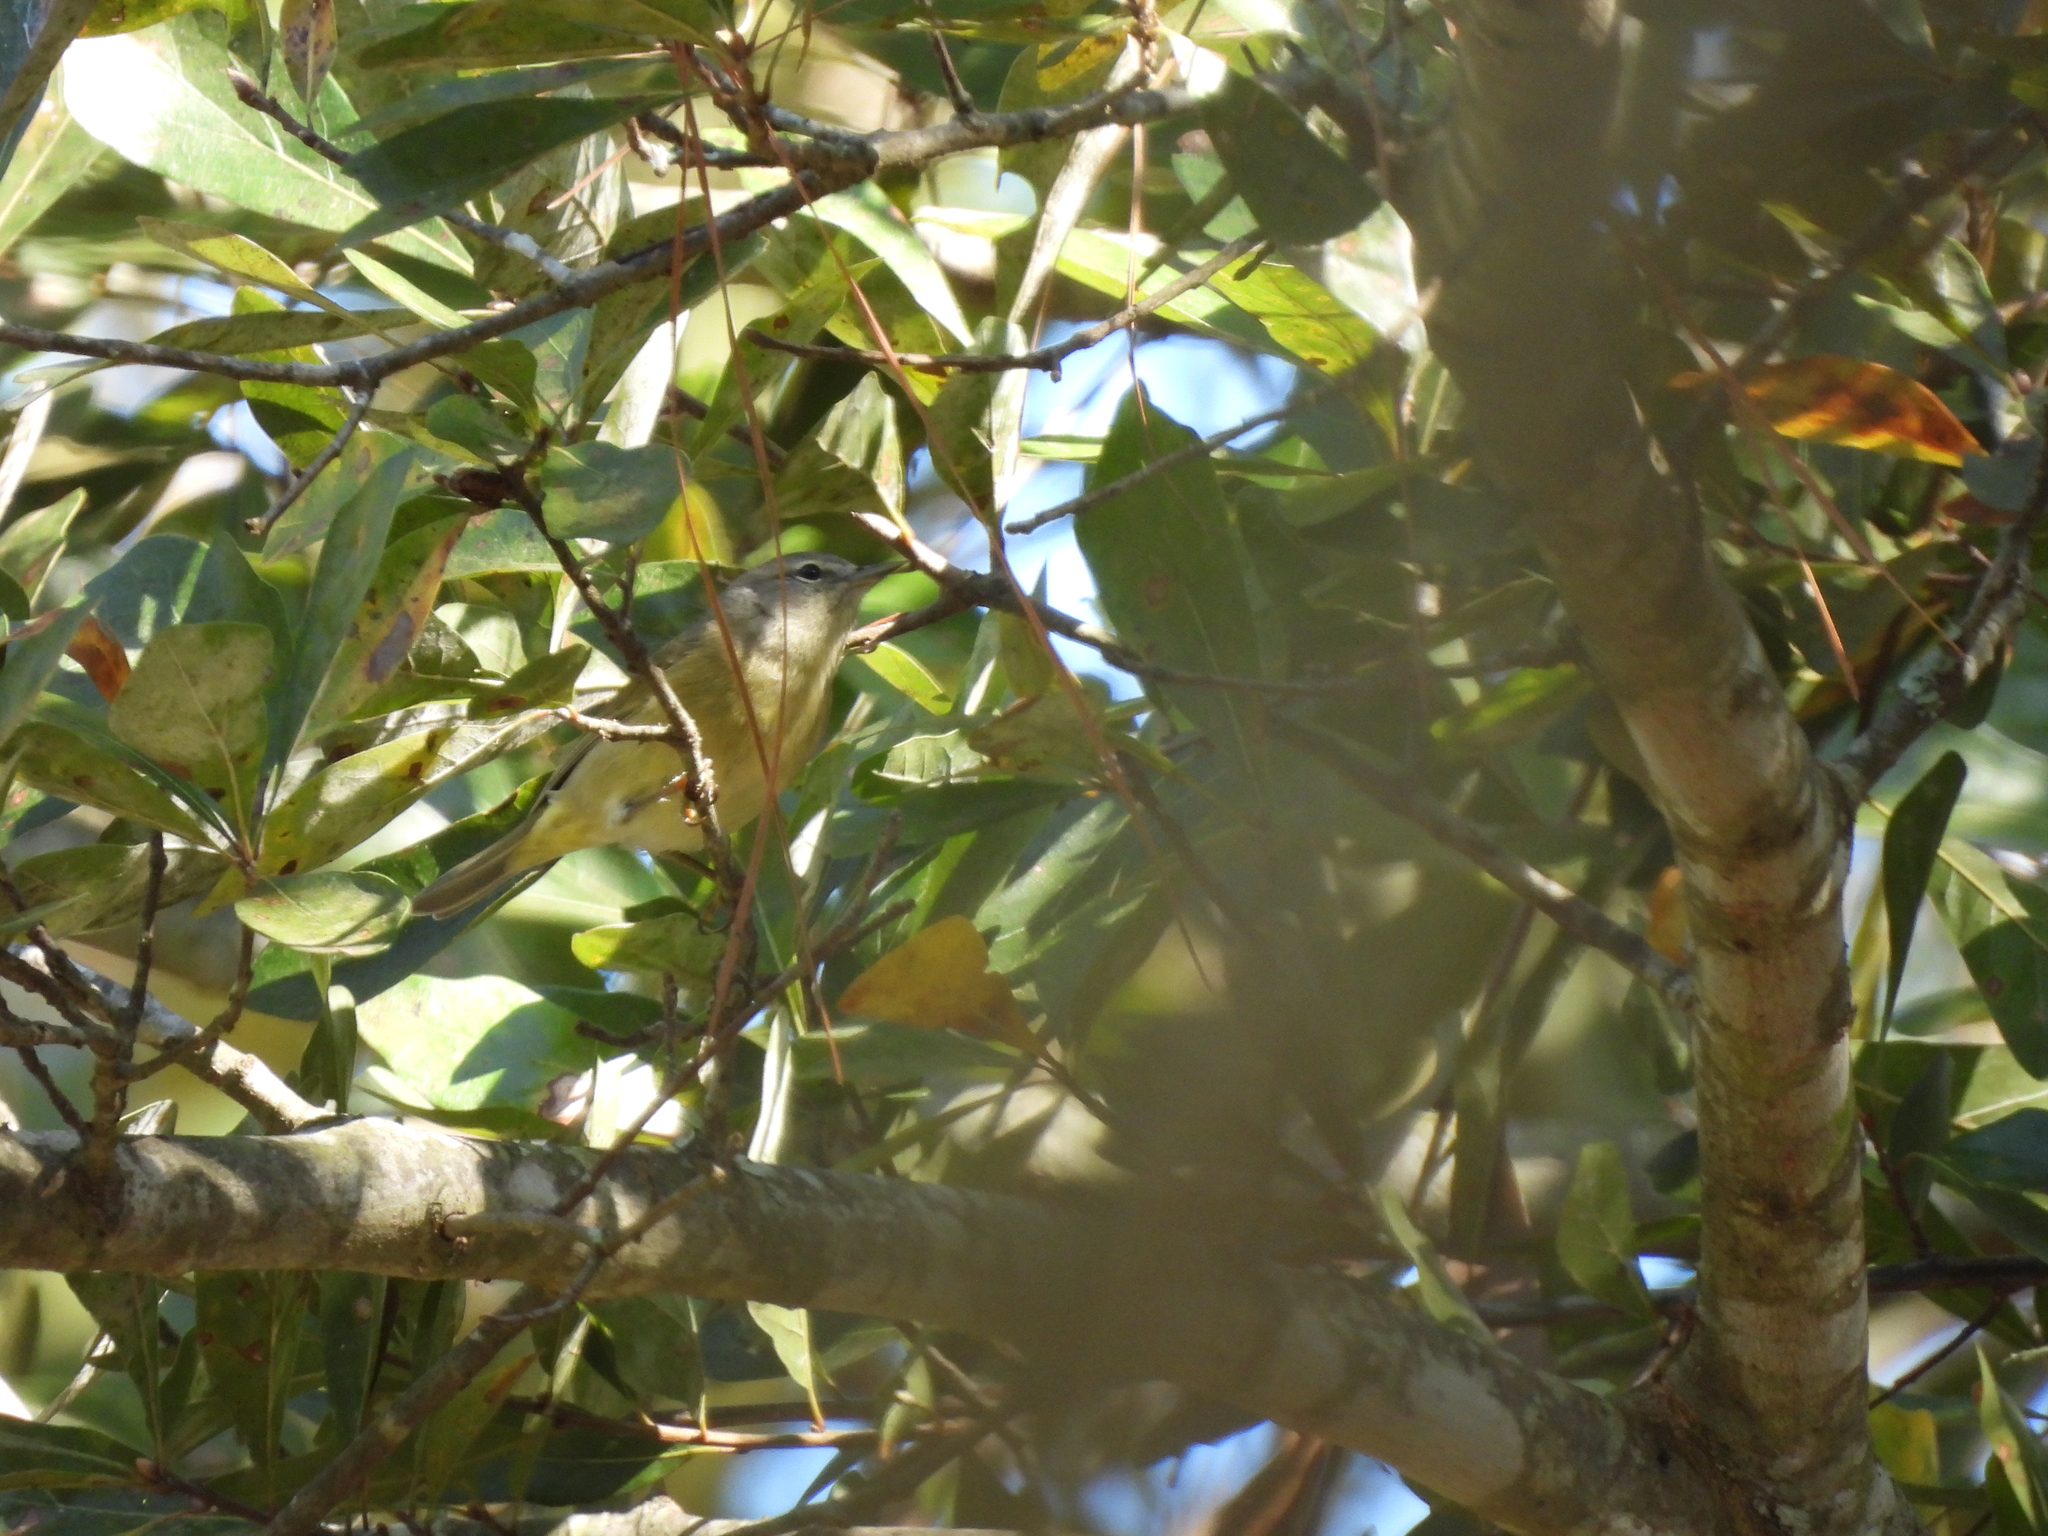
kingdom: Animalia
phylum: Chordata
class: Aves
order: Passeriformes
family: Parulidae
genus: Leiothlypis
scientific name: Leiothlypis celata
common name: Orange-crowned warbler
